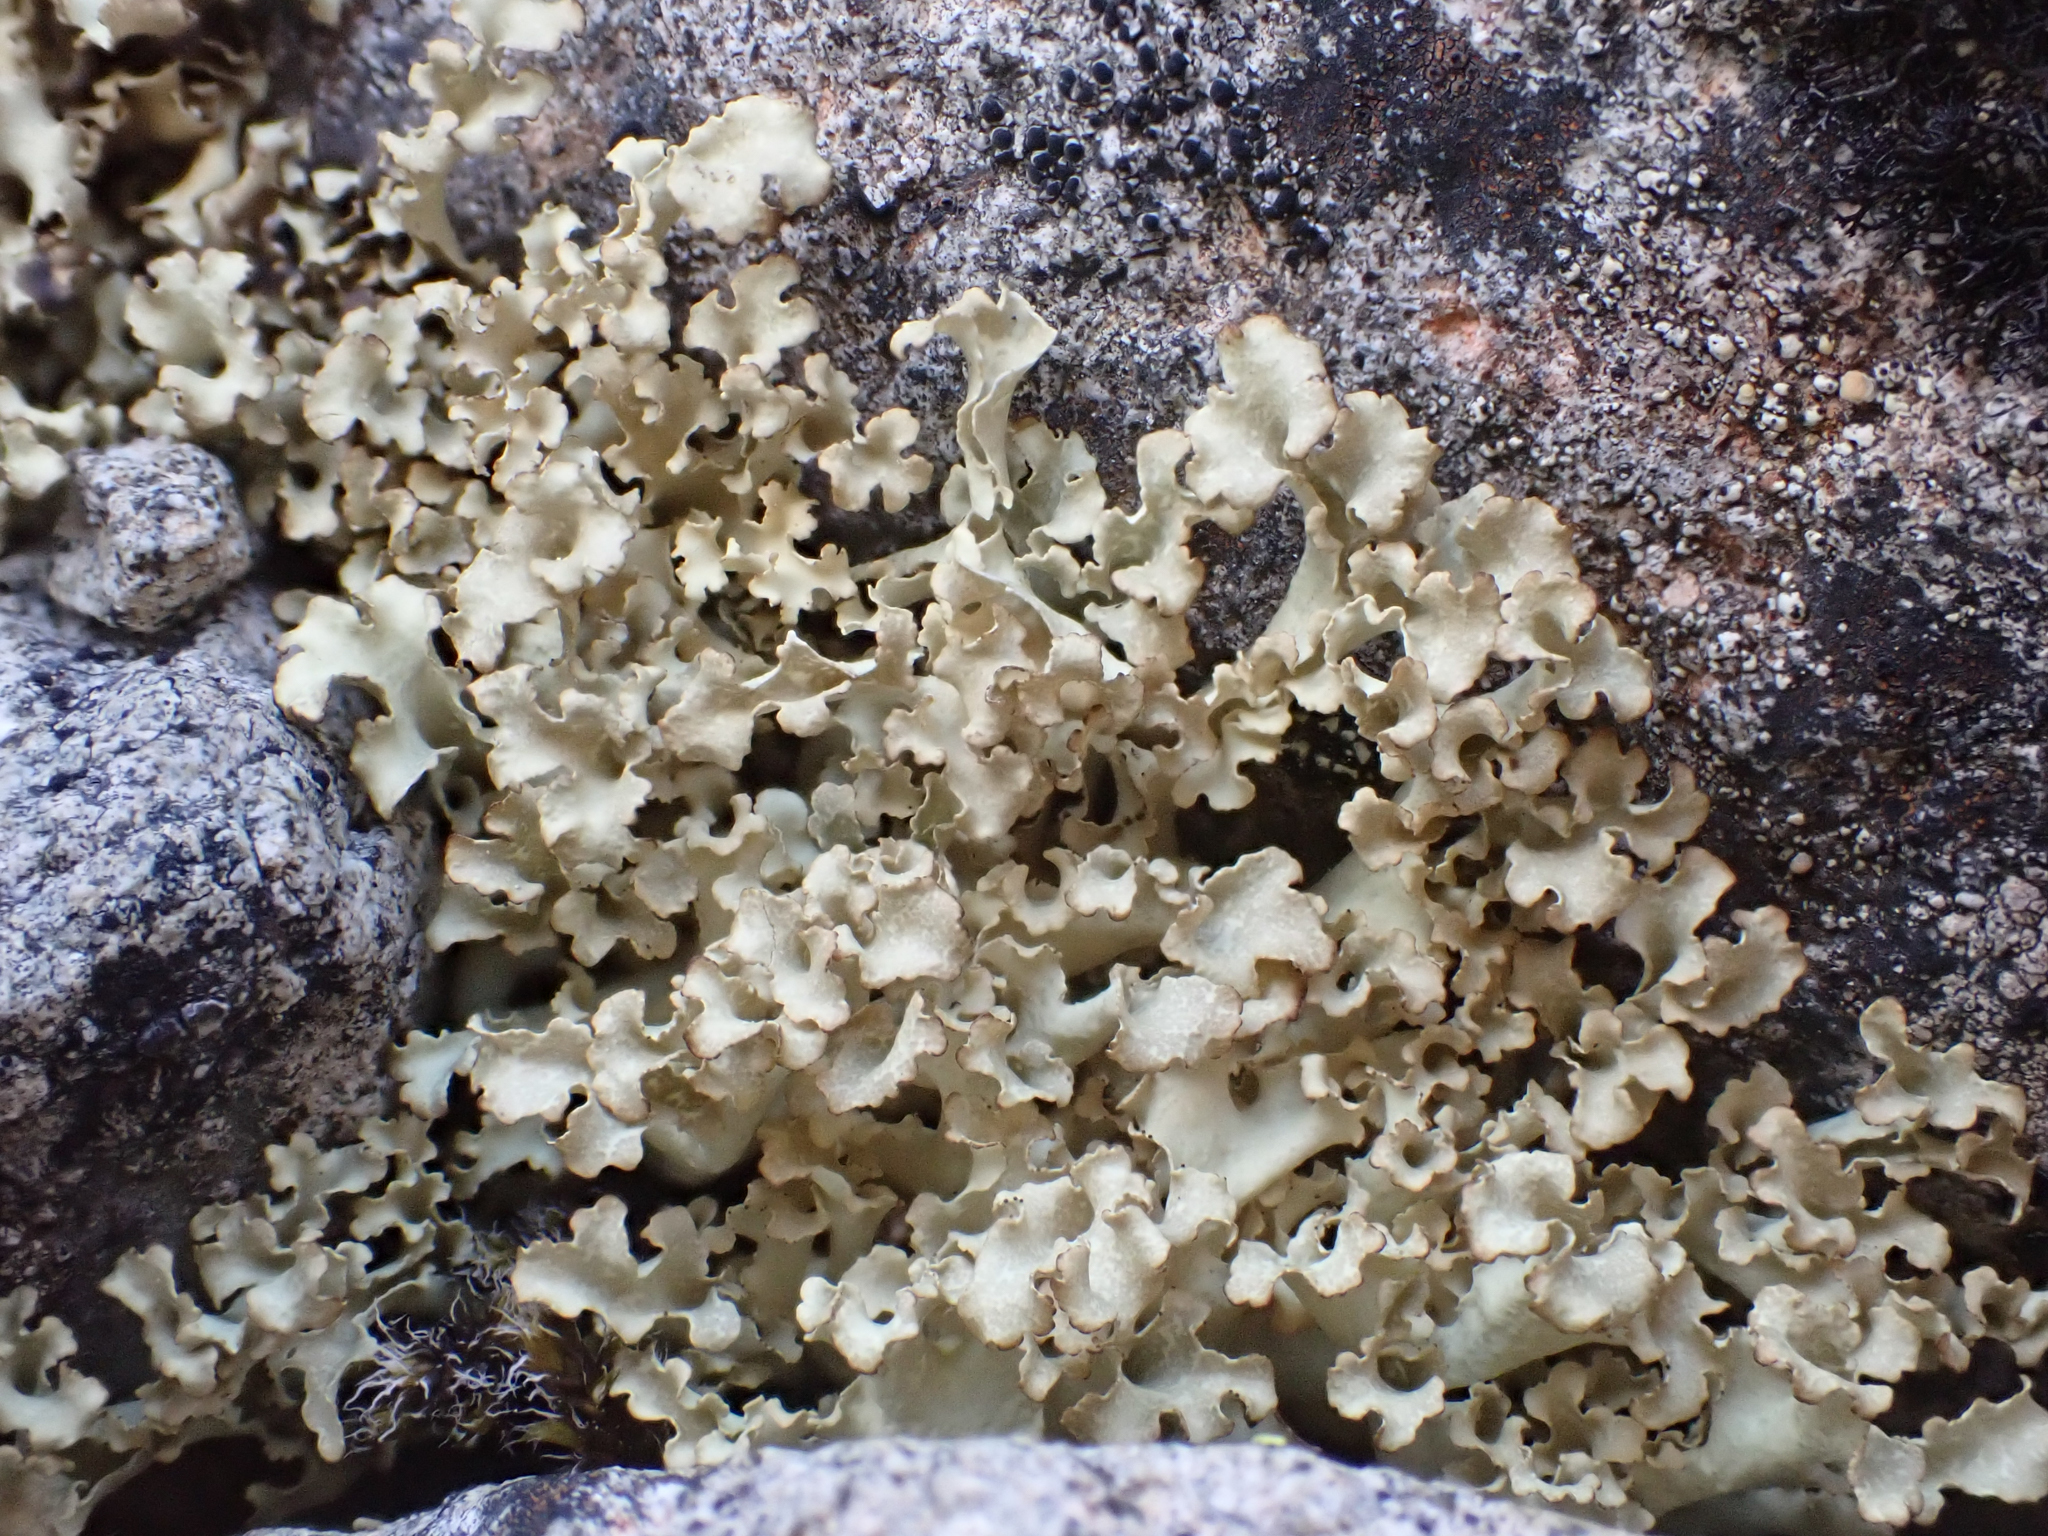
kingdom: Fungi
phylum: Ascomycota
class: Lecanoromycetes
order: Lecanorales
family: Parmeliaceae
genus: Nephromopsis
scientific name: Nephromopsis nivalis
